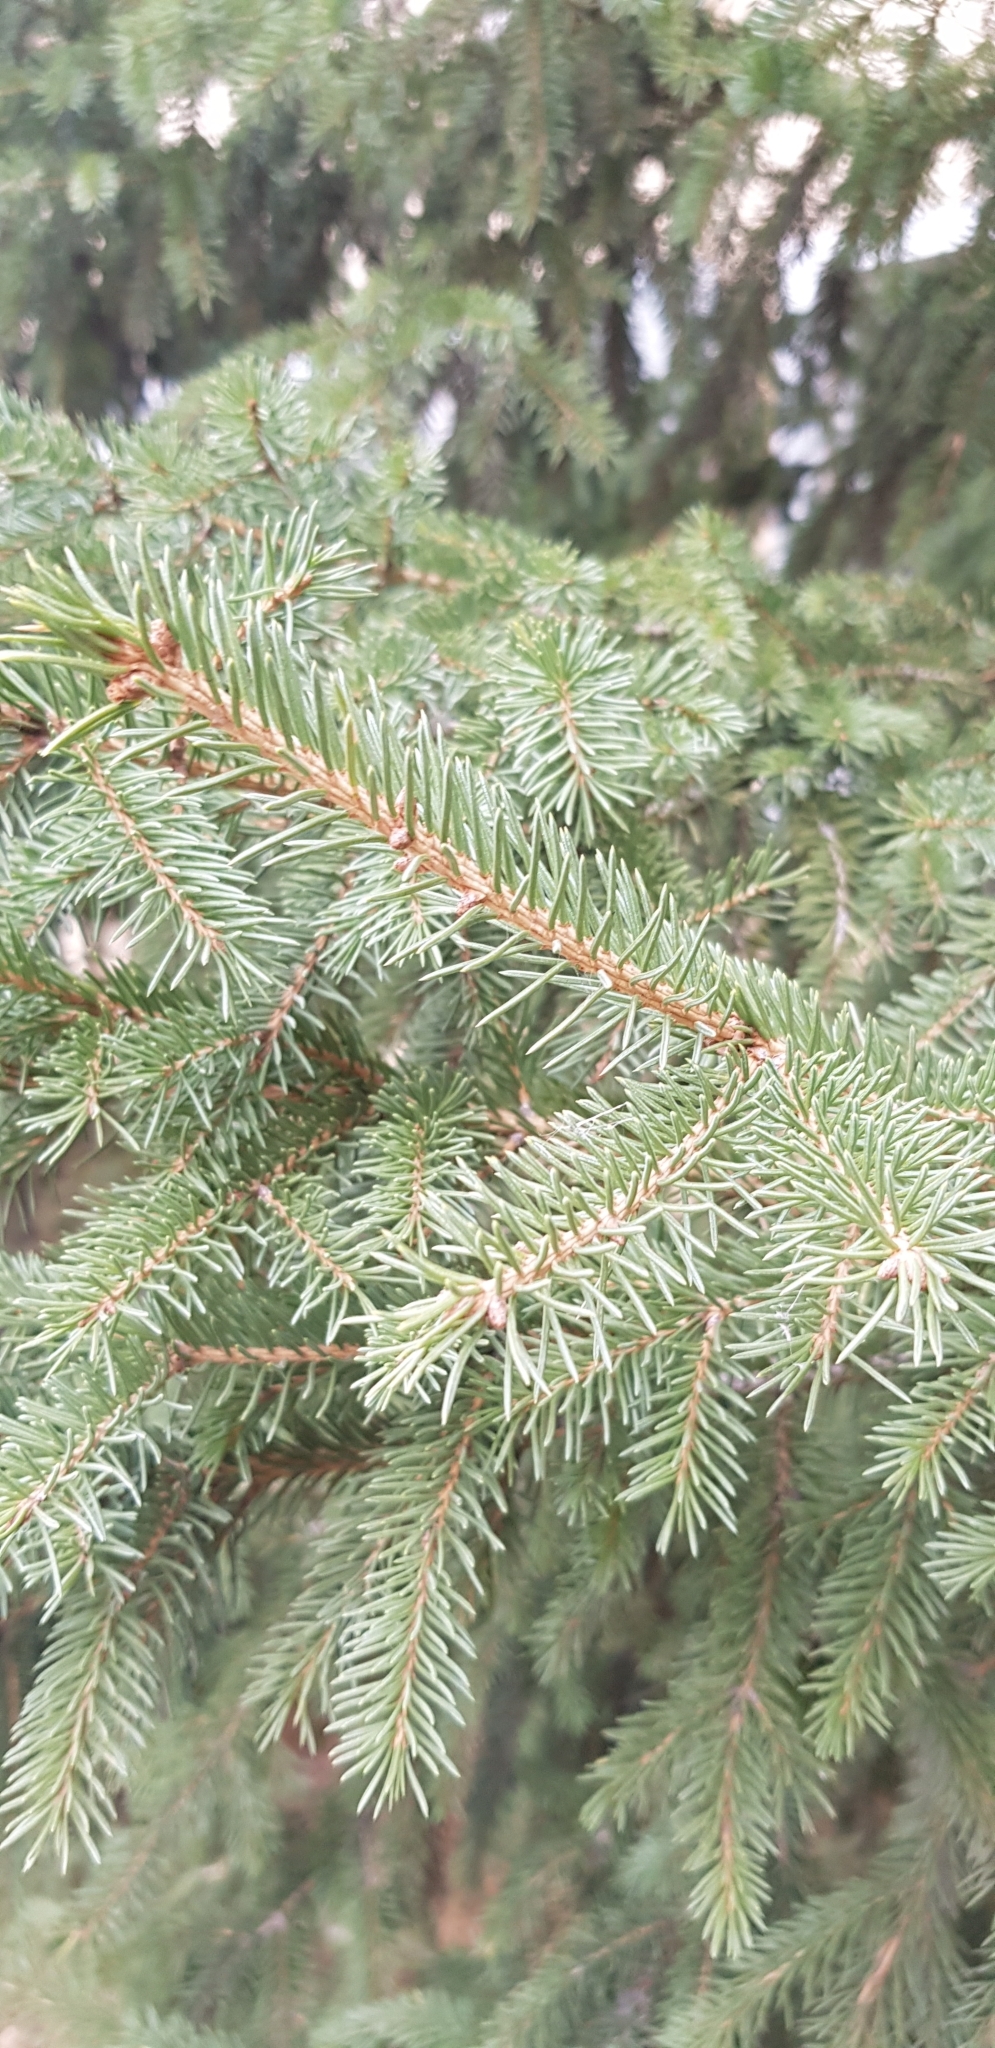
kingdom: Plantae
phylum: Tracheophyta
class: Pinopsida
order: Pinales
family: Pinaceae
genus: Picea
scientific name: Picea obovata
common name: Siberian spruce
